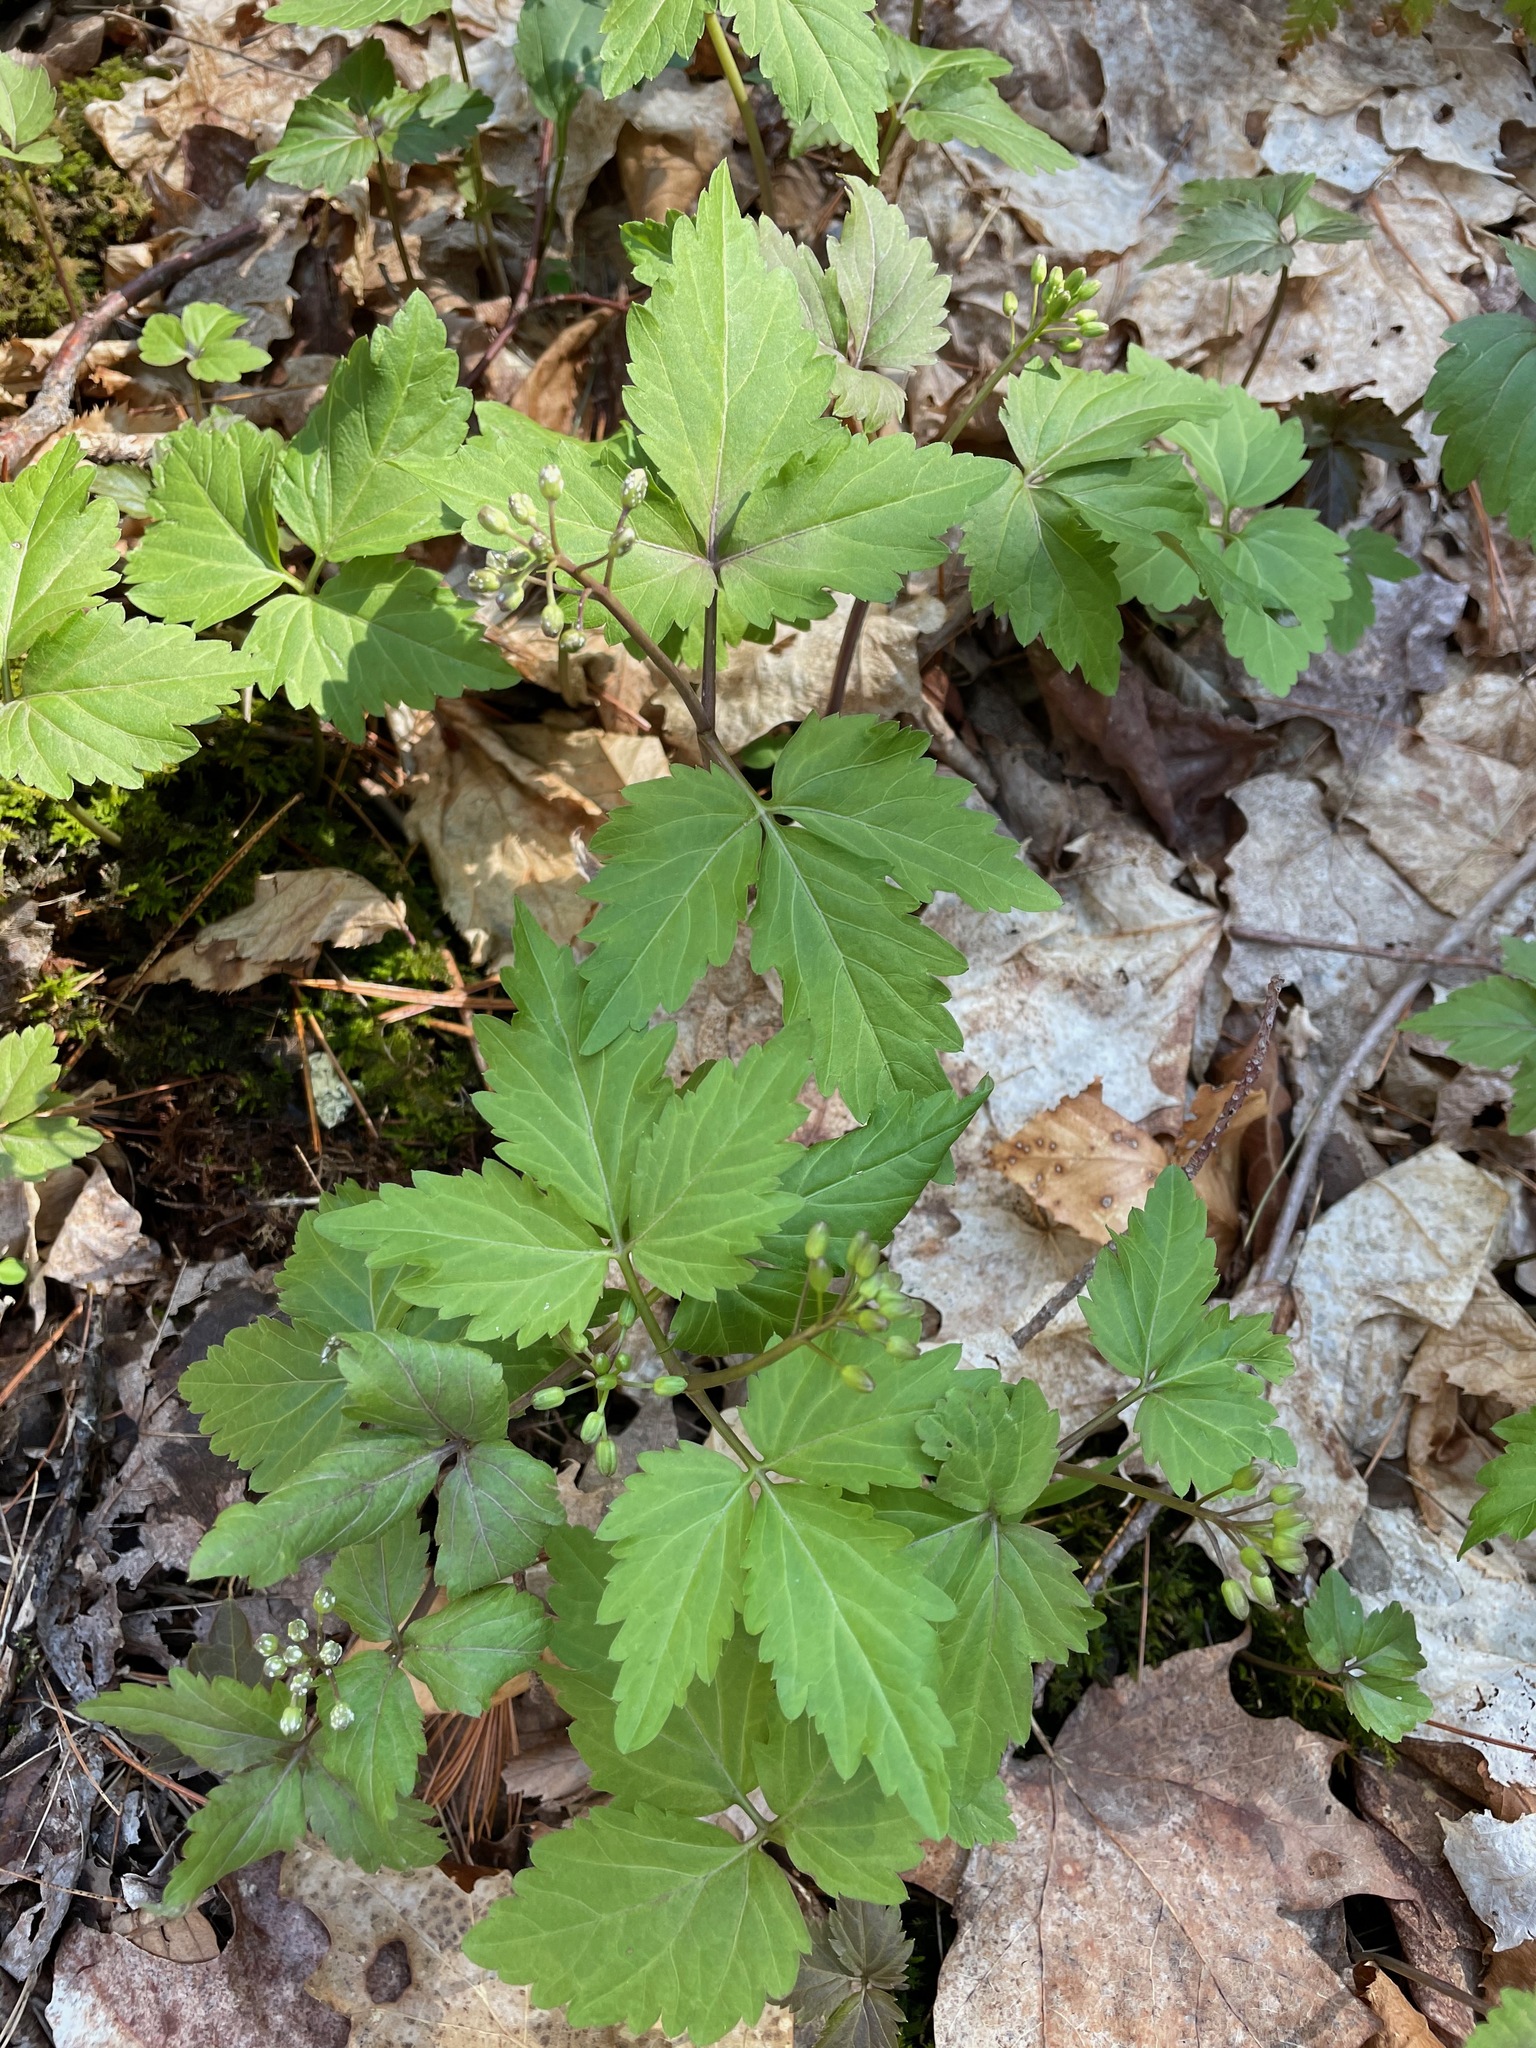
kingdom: Plantae
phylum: Tracheophyta
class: Magnoliopsida
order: Brassicales
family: Brassicaceae
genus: Cardamine
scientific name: Cardamine diphylla
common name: Broad-leaved toothwort
